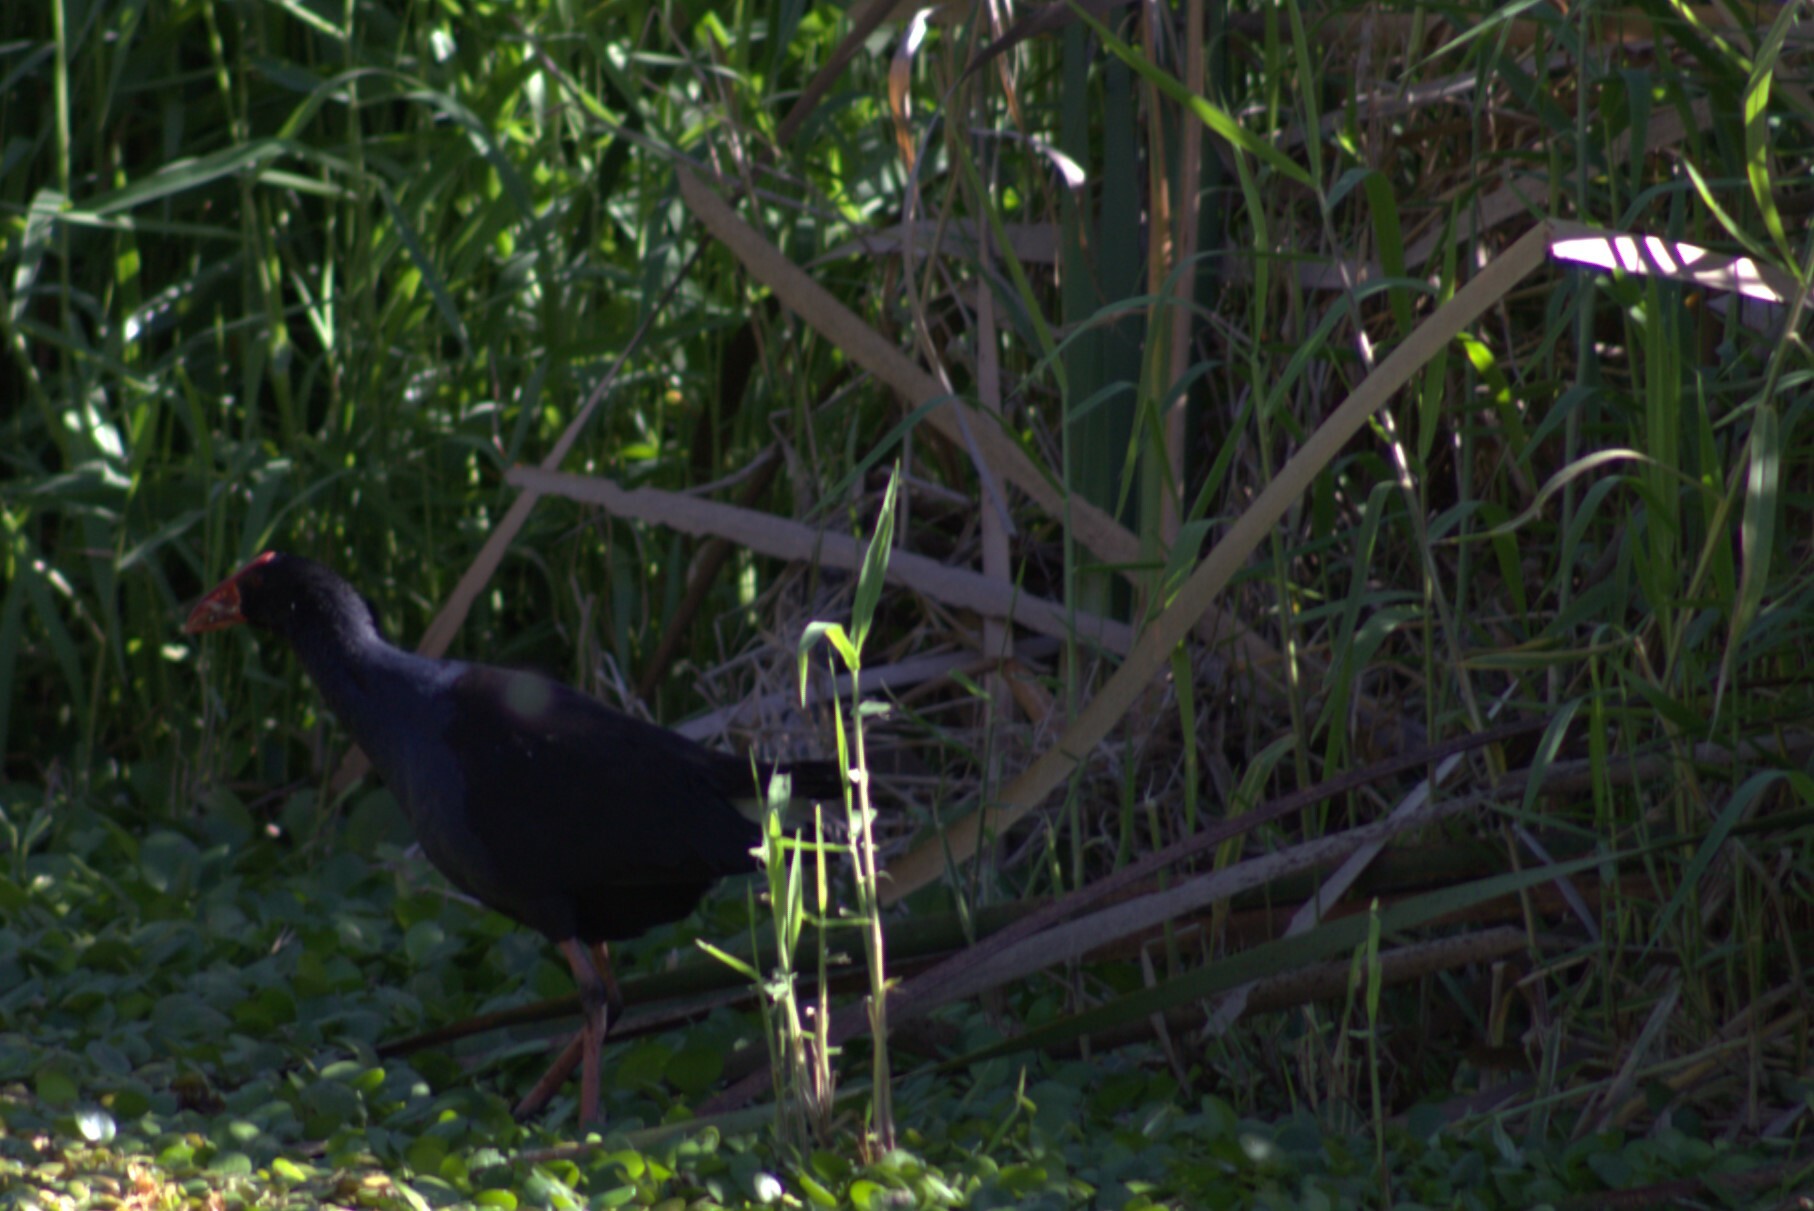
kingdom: Animalia
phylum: Chordata
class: Aves
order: Gruiformes
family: Rallidae
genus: Porphyrio
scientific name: Porphyrio melanotus
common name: Australasian swamphen
